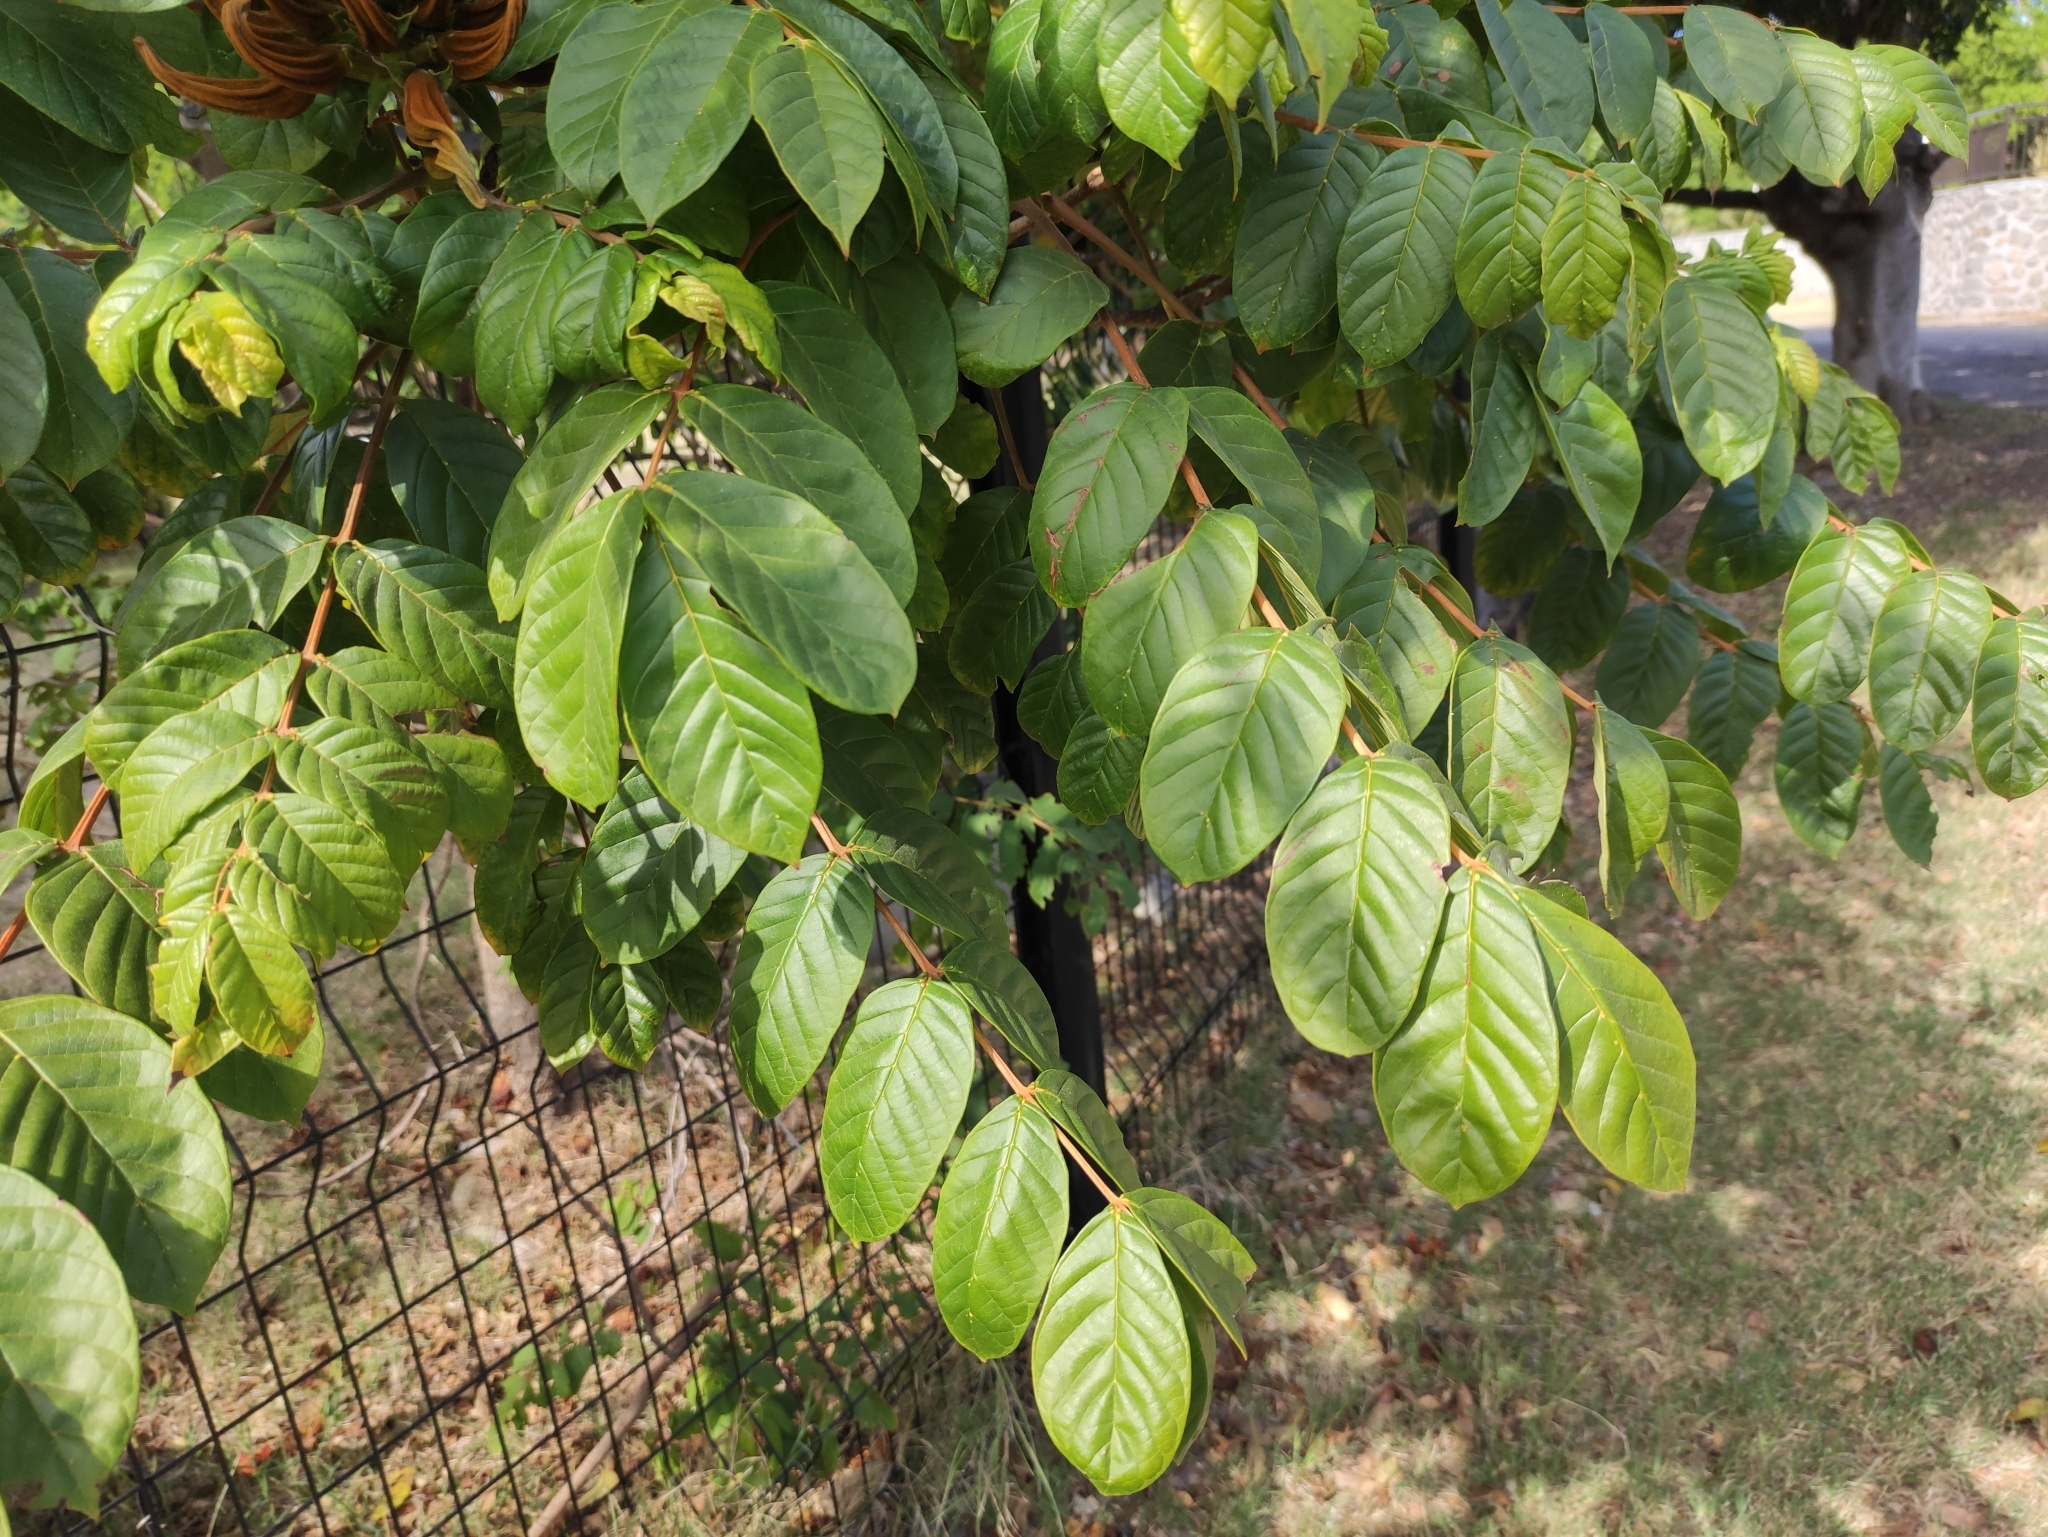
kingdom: Plantae
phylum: Tracheophyta
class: Magnoliopsida
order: Lamiales
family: Bignoniaceae
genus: Spathodea
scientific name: Spathodea campanulata
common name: African tuliptree
